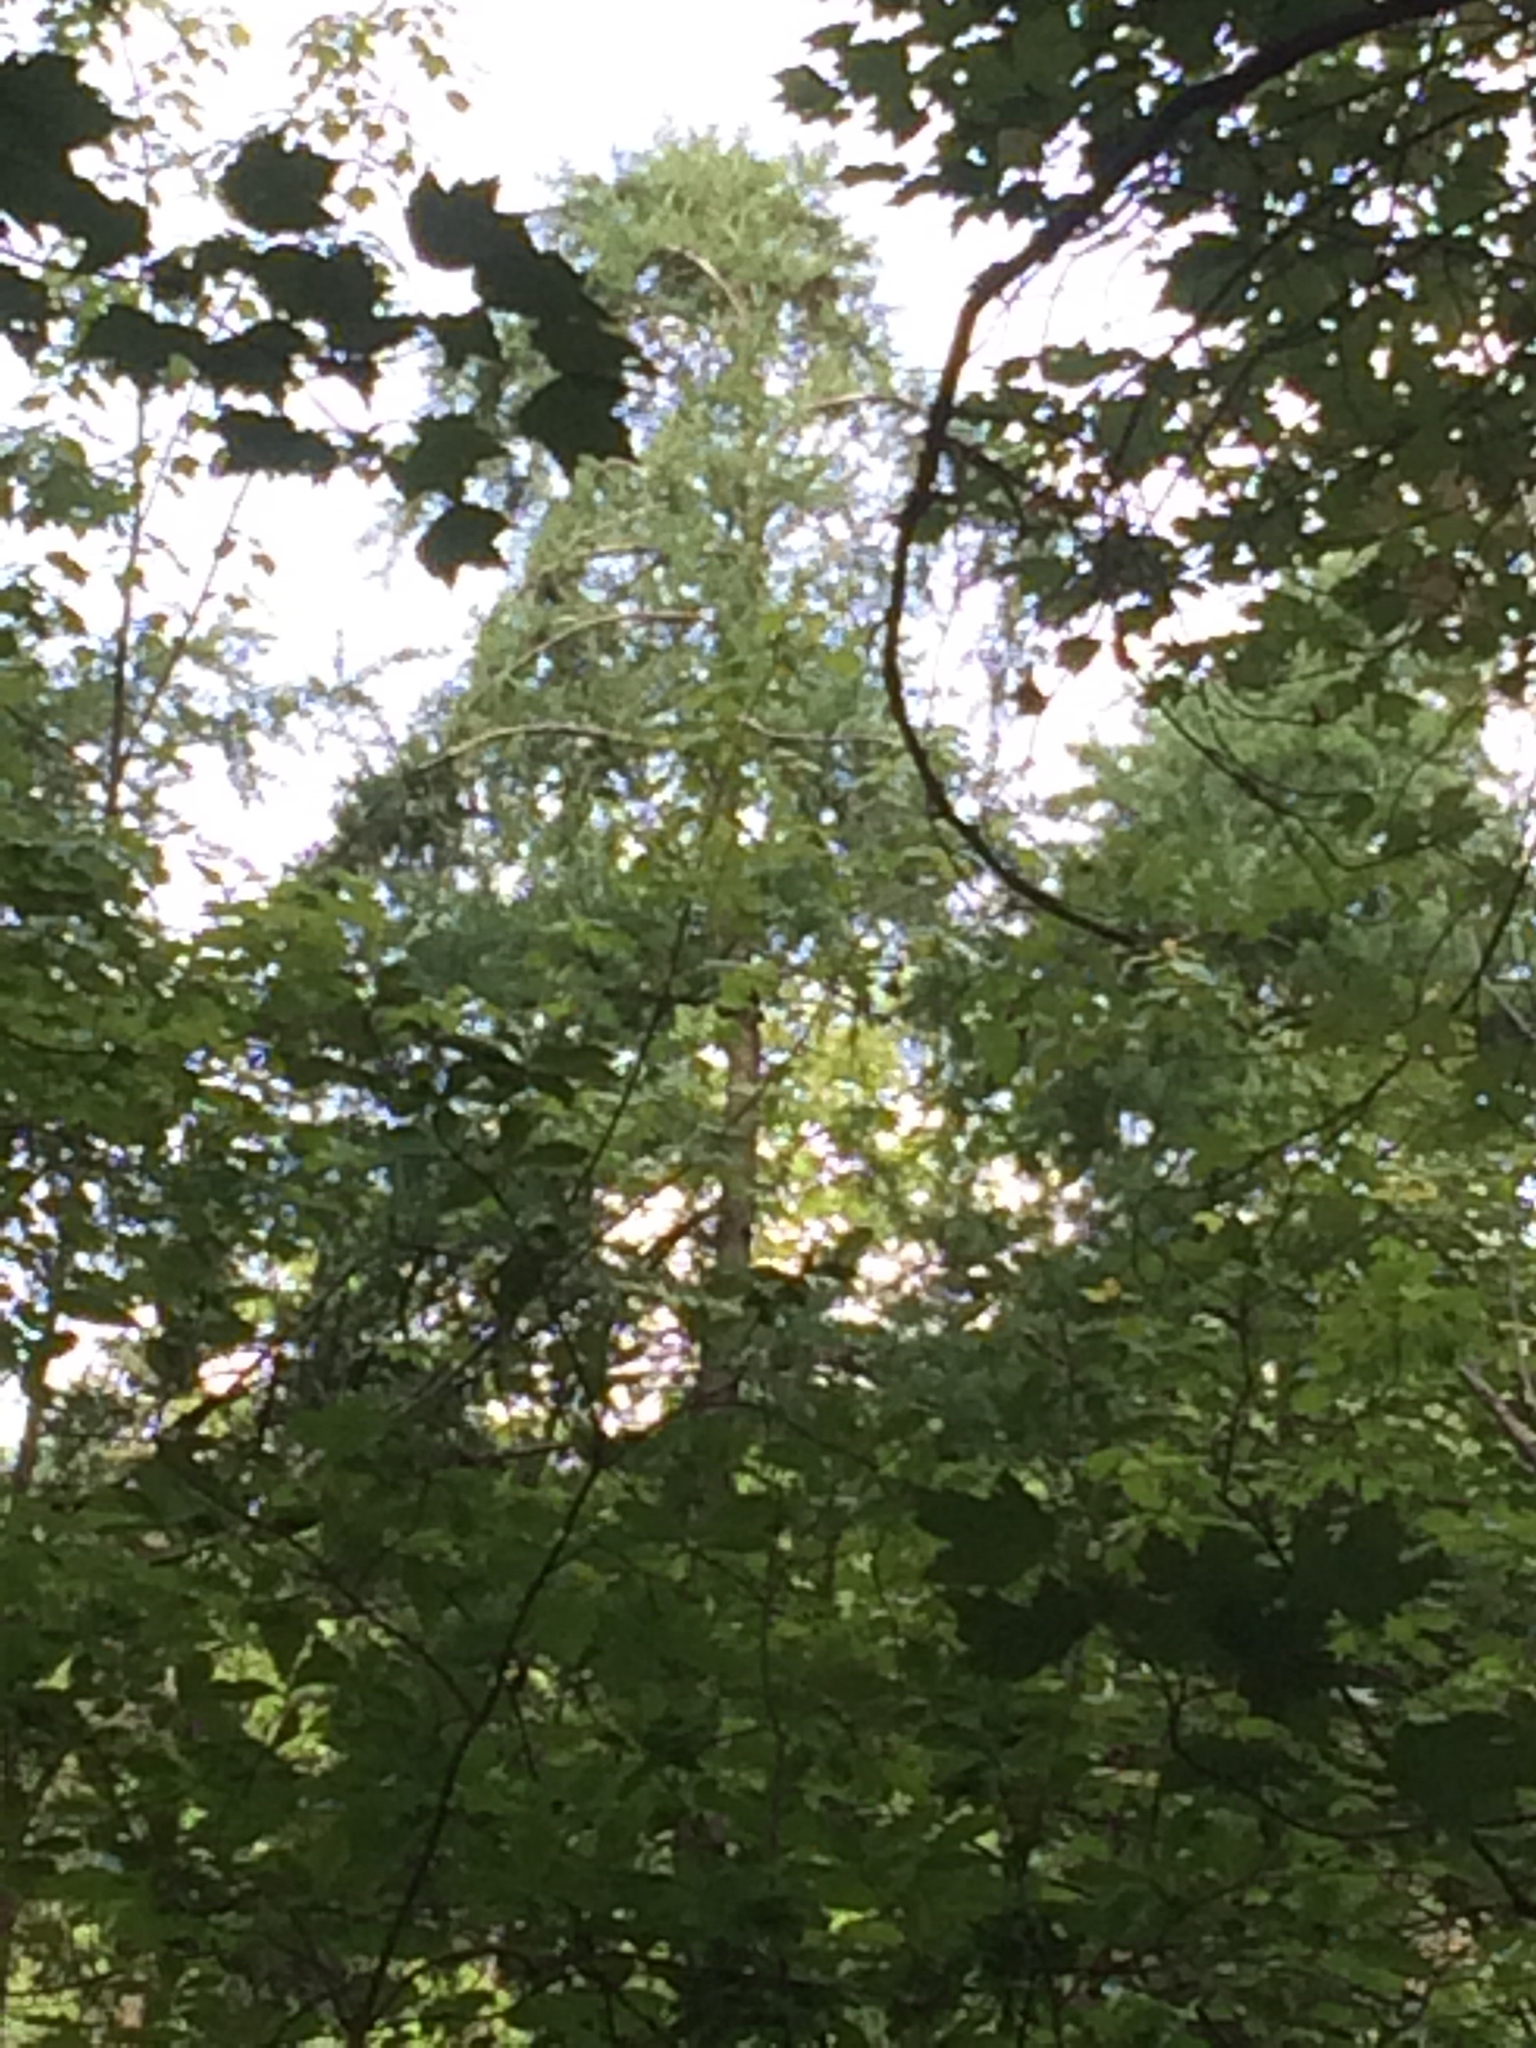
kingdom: Plantae
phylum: Tracheophyta
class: Pinopsida
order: Pinales
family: Pinaceae
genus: Larix
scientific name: Larix laricina
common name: American larch
